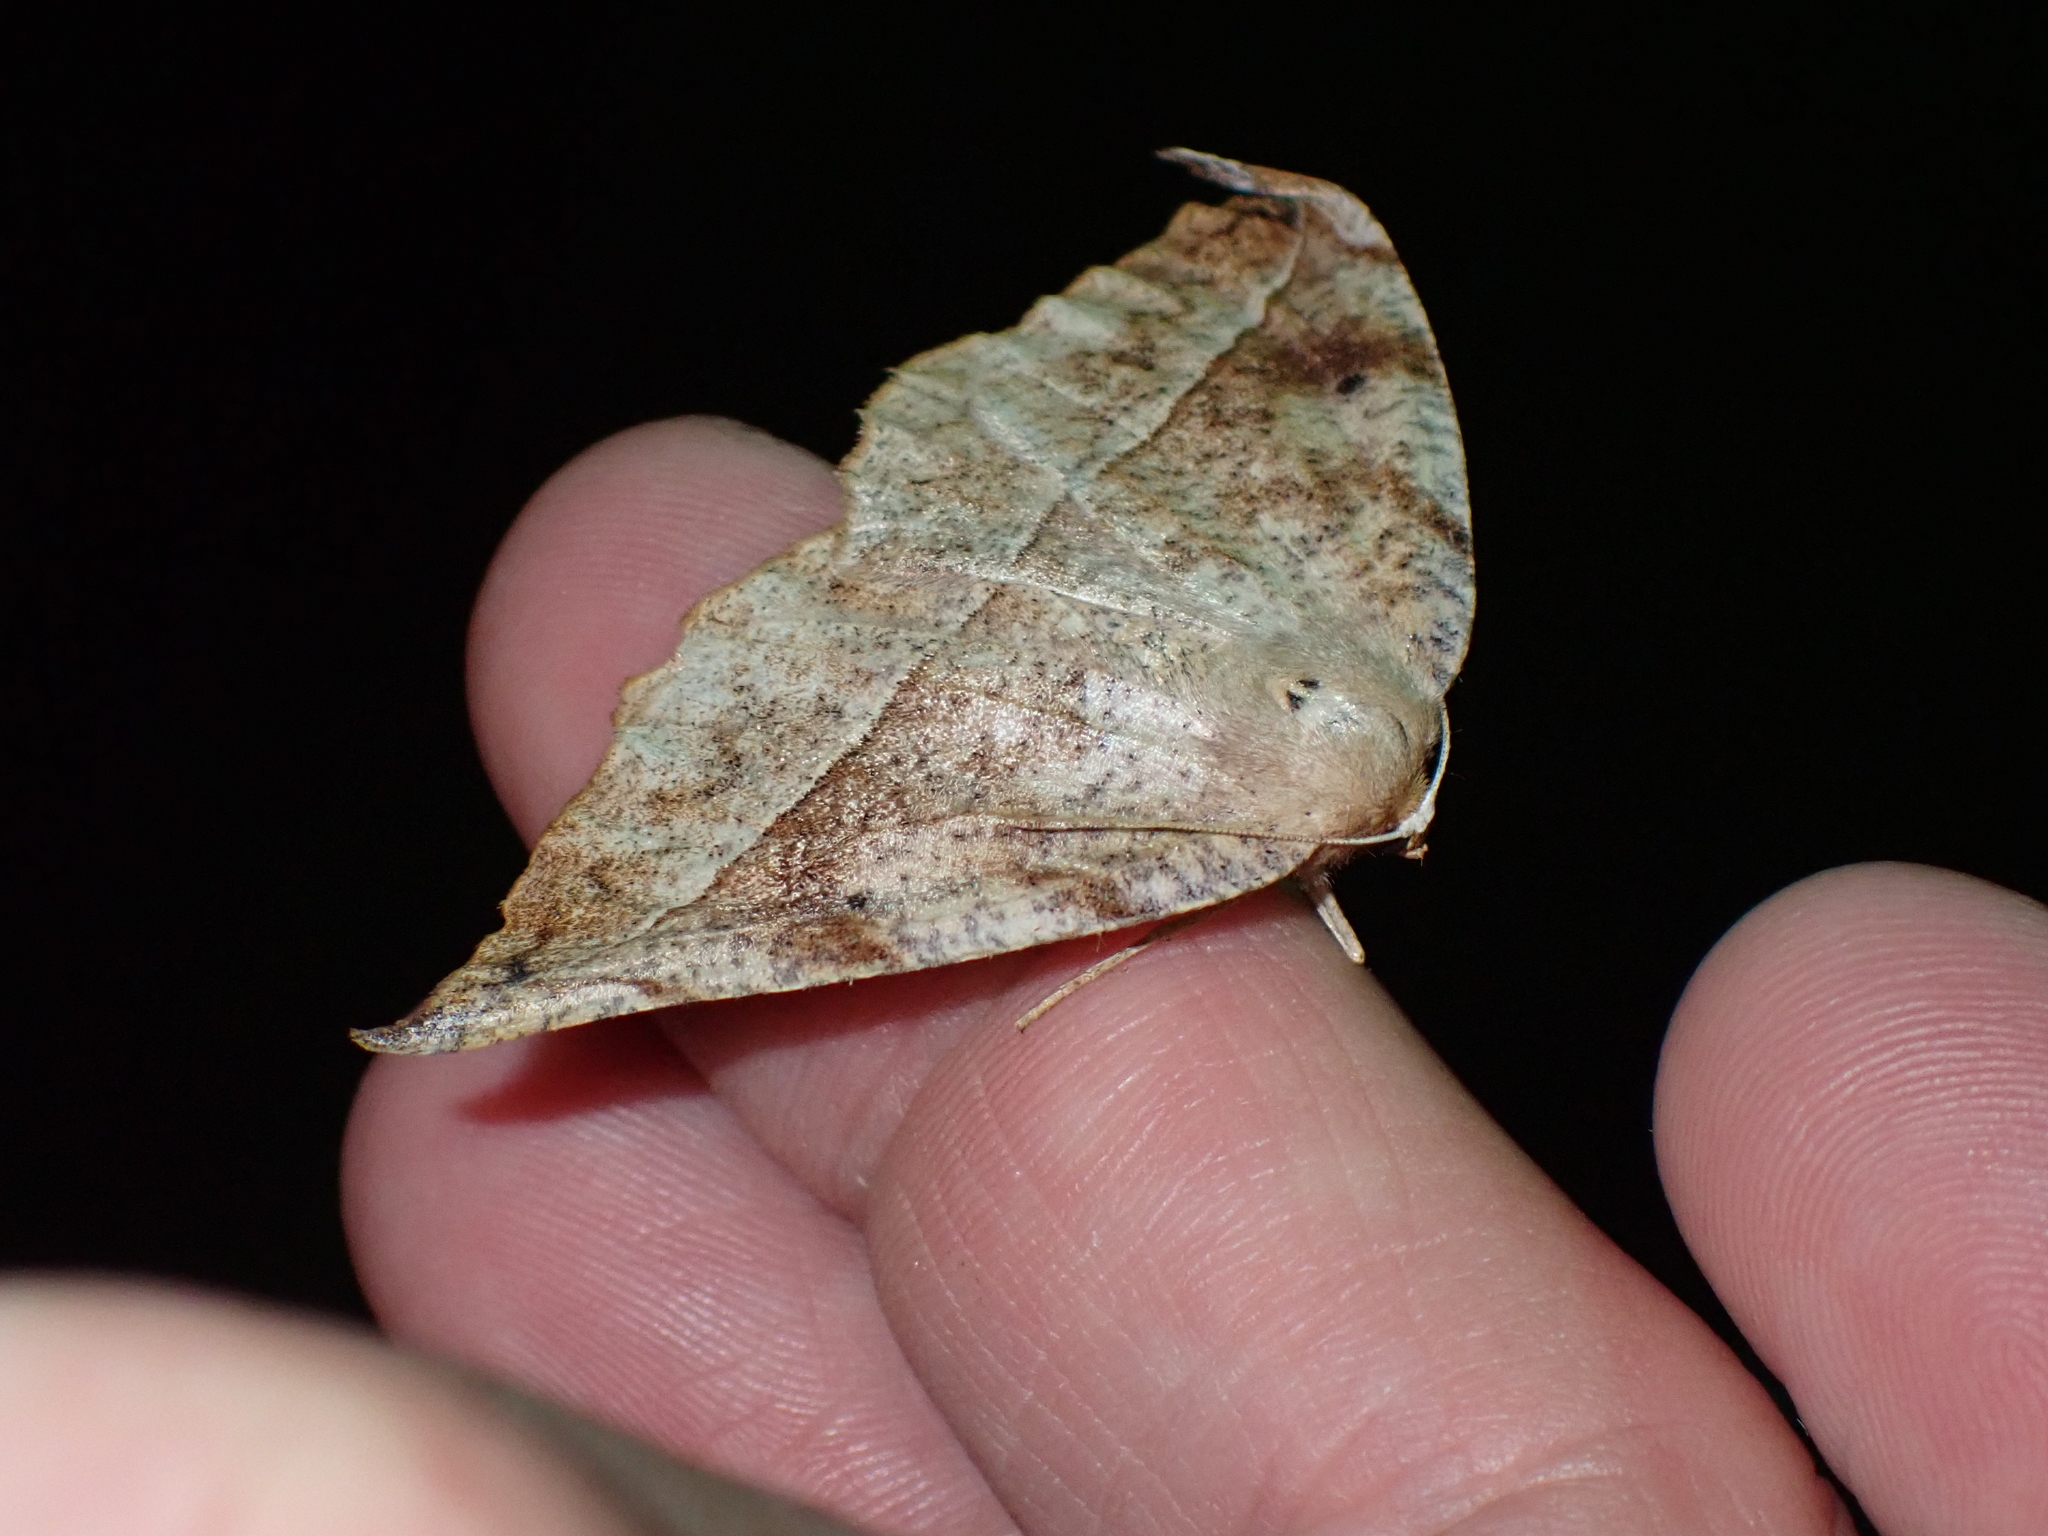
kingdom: Animalia
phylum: Arthropoda
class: Insecta
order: Lepidoptera
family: Geometridae
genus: Eutrapela
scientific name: Eutrapela clemataria
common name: Curved-toothed geometer
